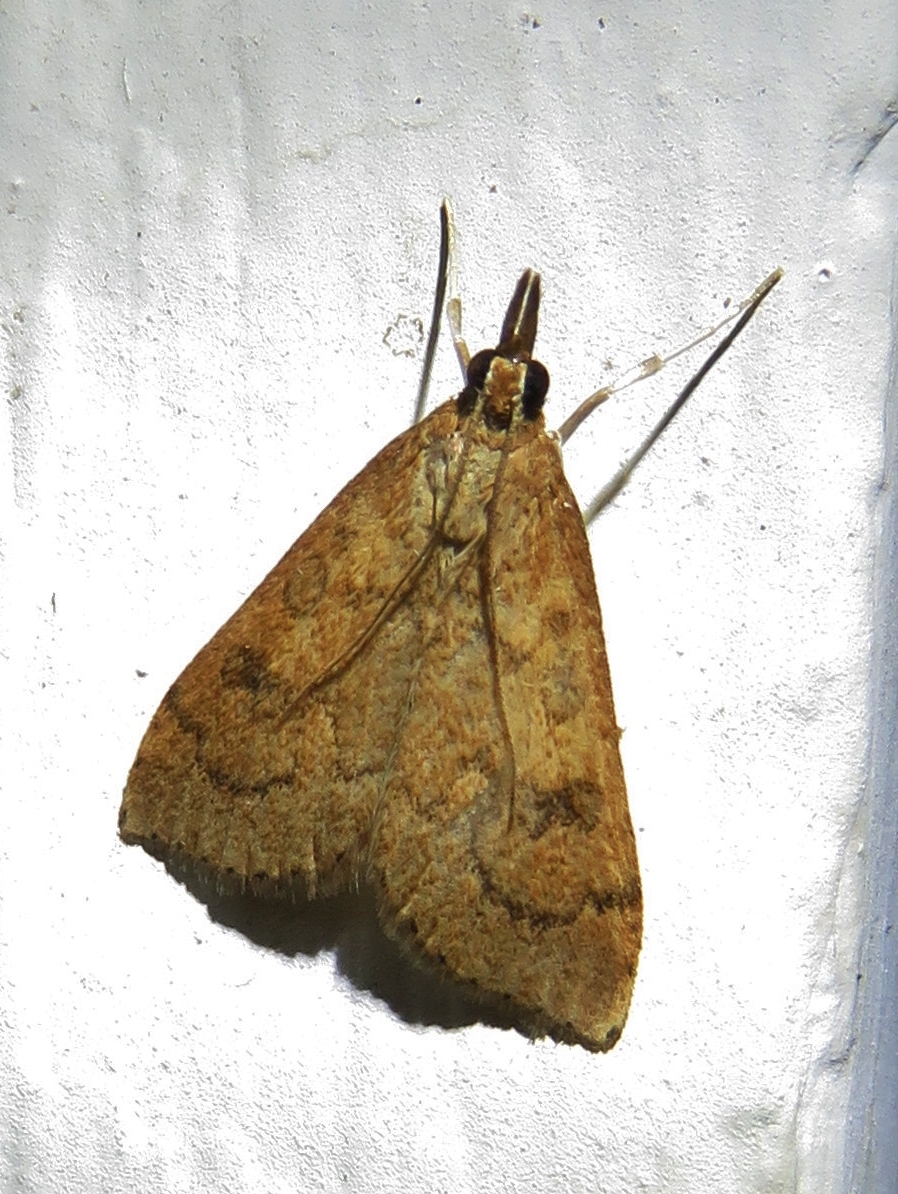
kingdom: Animalia
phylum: Arthropoda
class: Insecta
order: Lepidoptera
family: Crambidae
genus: Udea
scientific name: Udea rubigalis
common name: Celery leaftier moth
